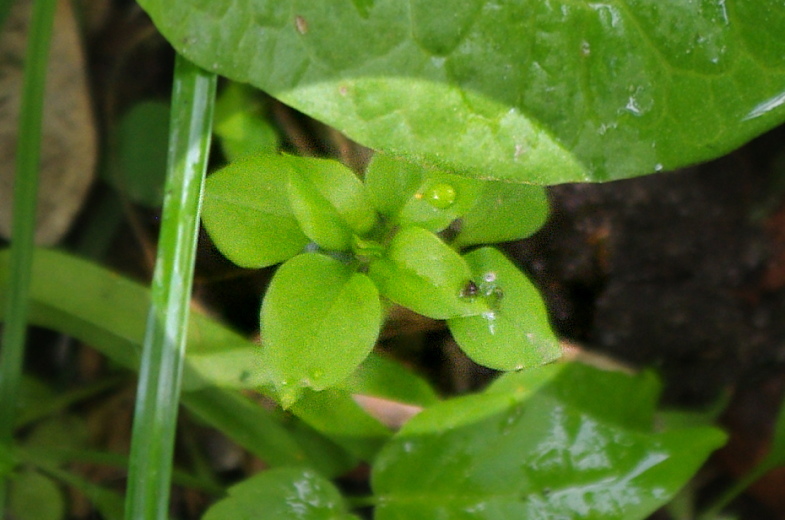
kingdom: Plantae
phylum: Tracheophyta
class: Magnoliopsida
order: Caryophyllales
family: Caryophyllaceae
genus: Stellaria
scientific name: Stellaria media
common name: Common chickweed
